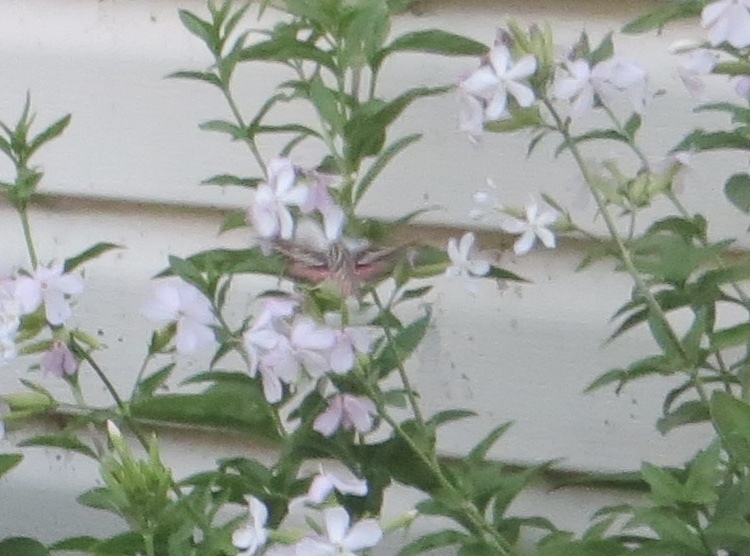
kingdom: Animalia
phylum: Arthropoda
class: Insecta
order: Lepidoptera
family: Sphingidae
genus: Hyles
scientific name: Hyles lineata
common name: White-lined sphinx
